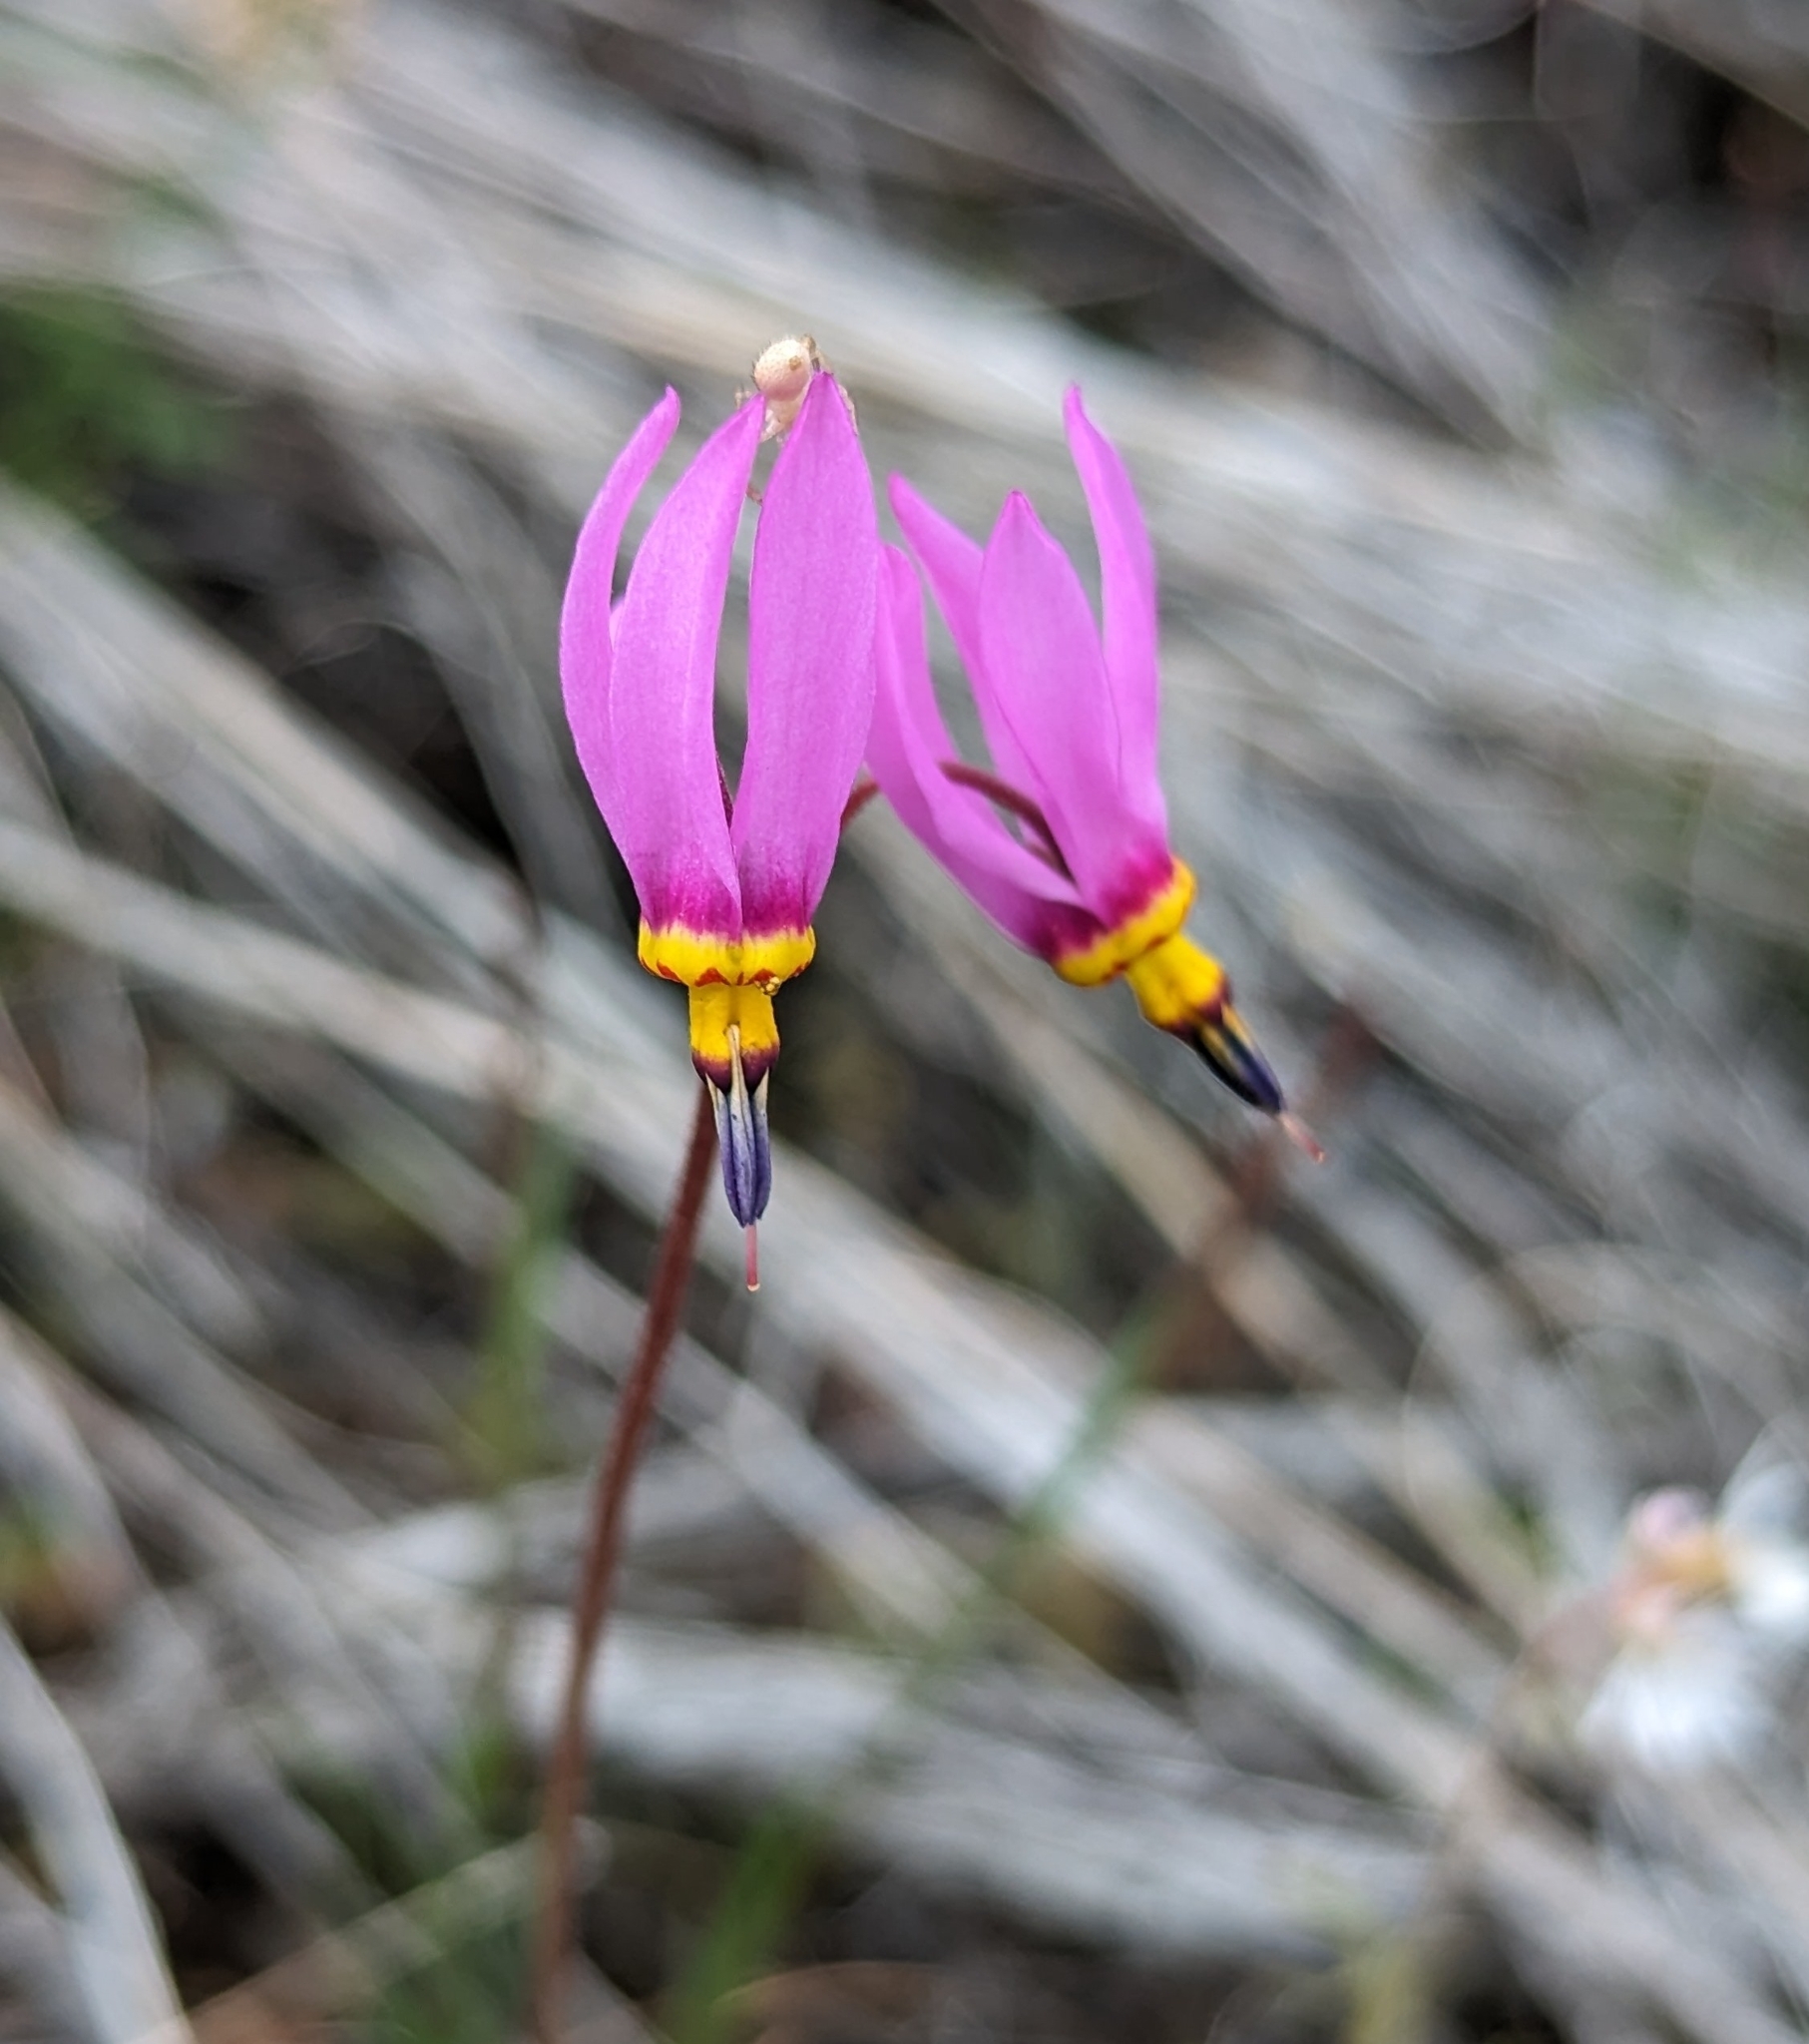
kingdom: Plantae
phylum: Tracheophyta
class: Magnoliopsida
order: Ericales
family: Primulaceae
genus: Dodecatheon
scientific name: Dodecatheon pulchellum
